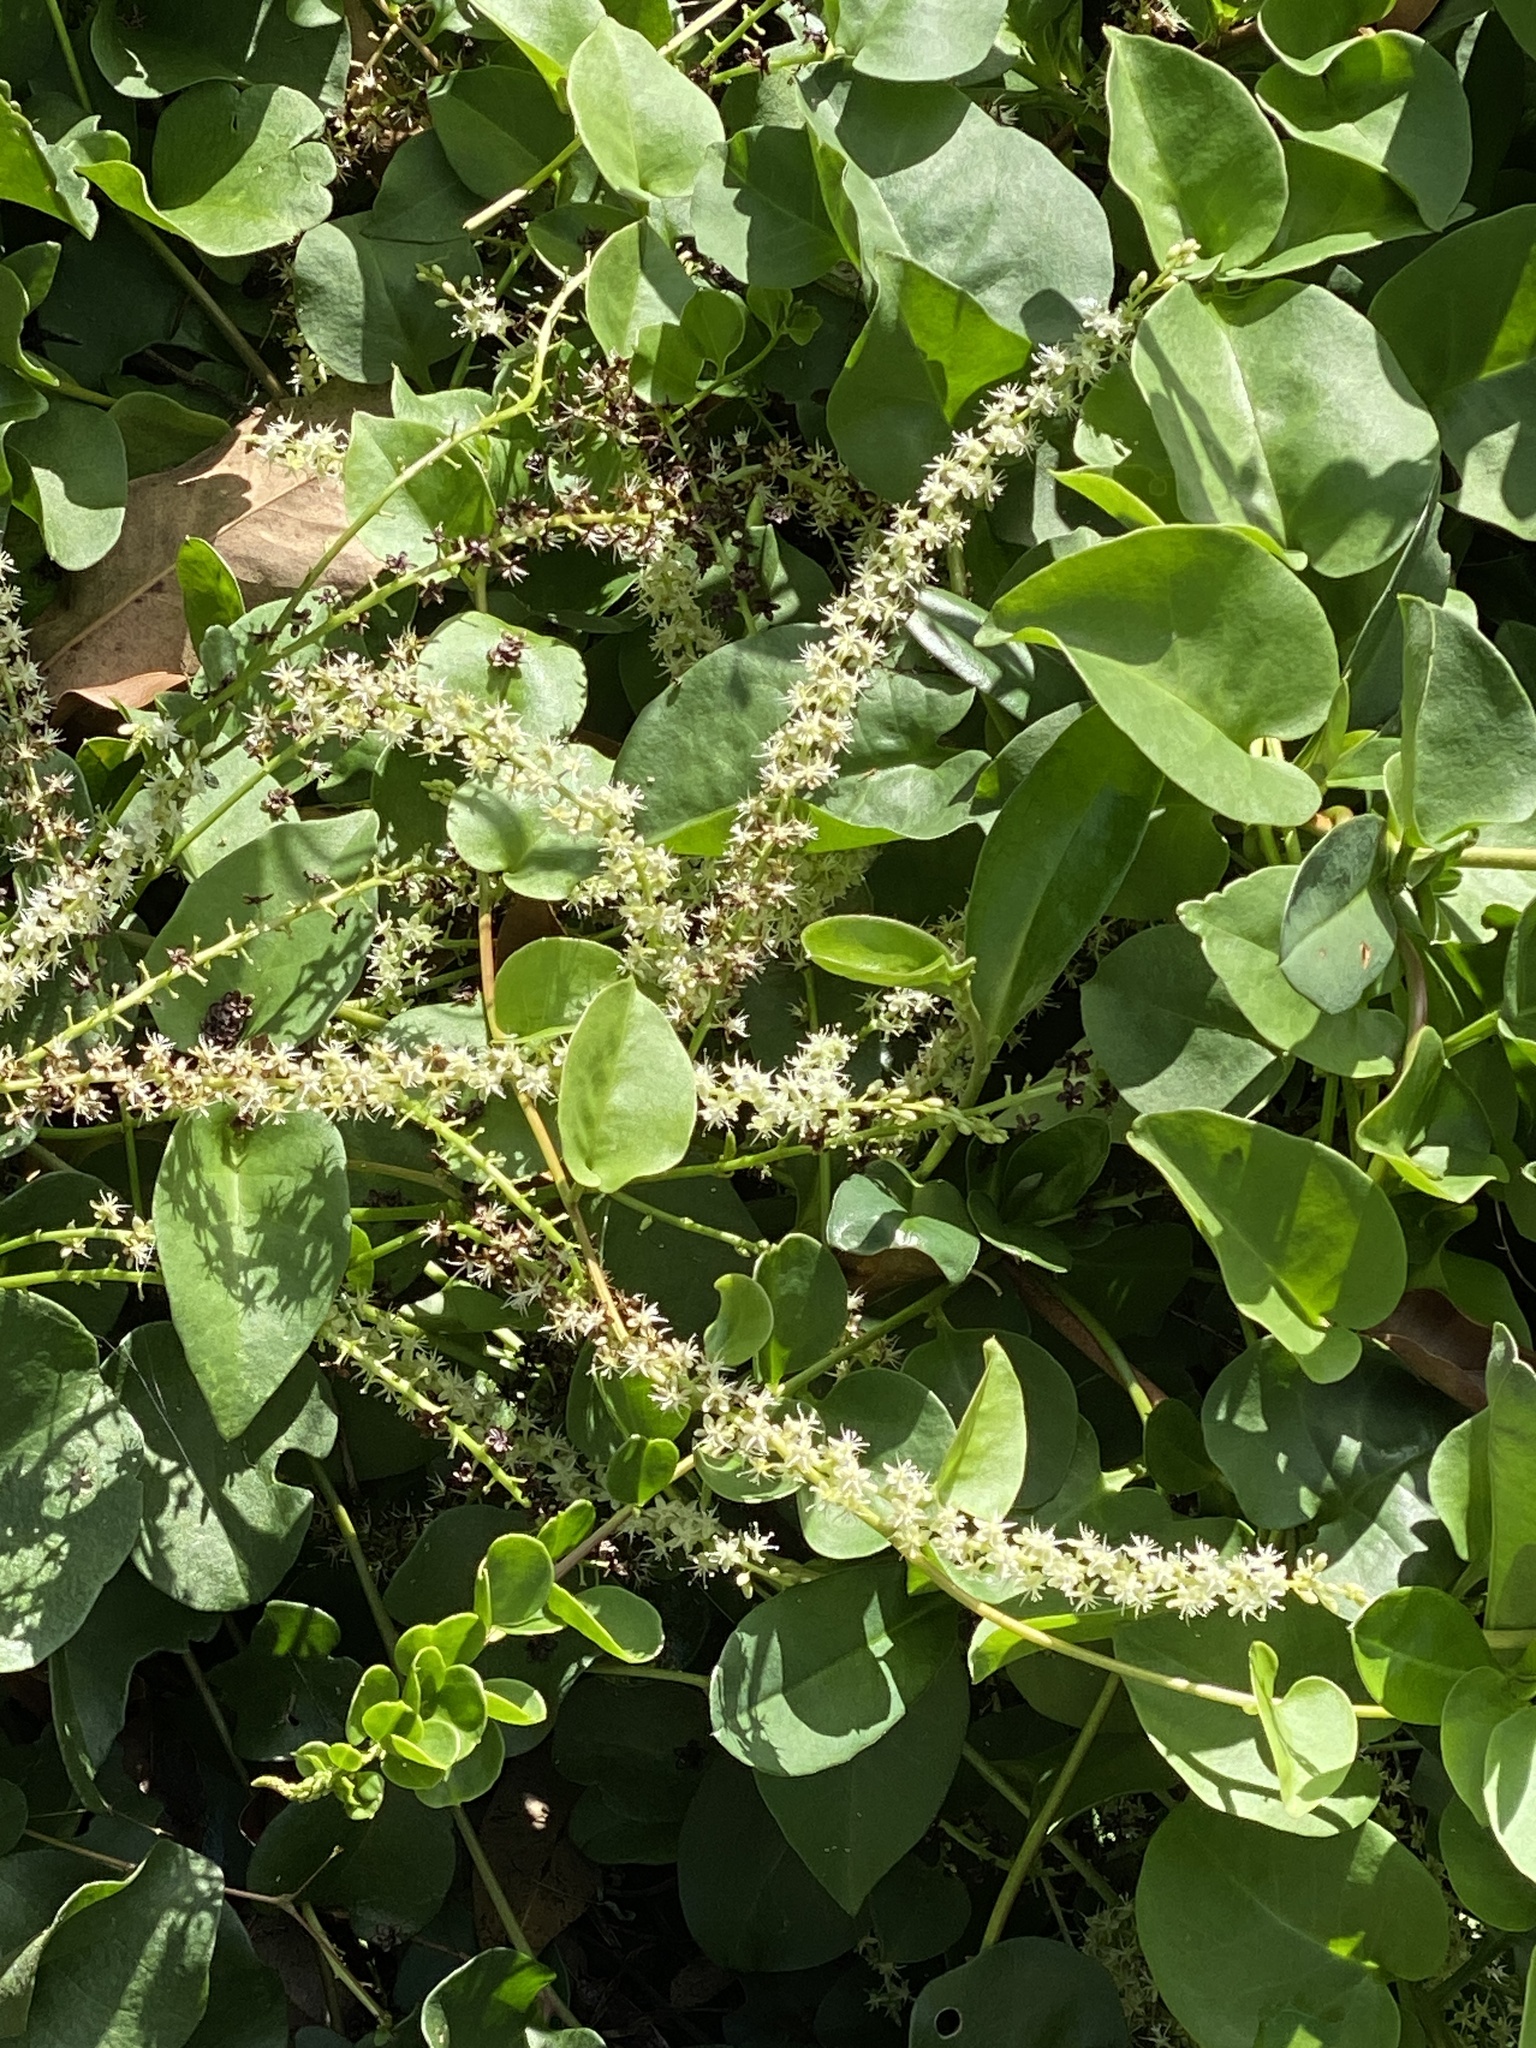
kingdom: Plantae
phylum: Tracheophyta
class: Magnoliopsida
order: Caryophyllales
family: Basellaceae
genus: Anredera
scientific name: Anredera cordifolia
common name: Heartleaf madeiravine
